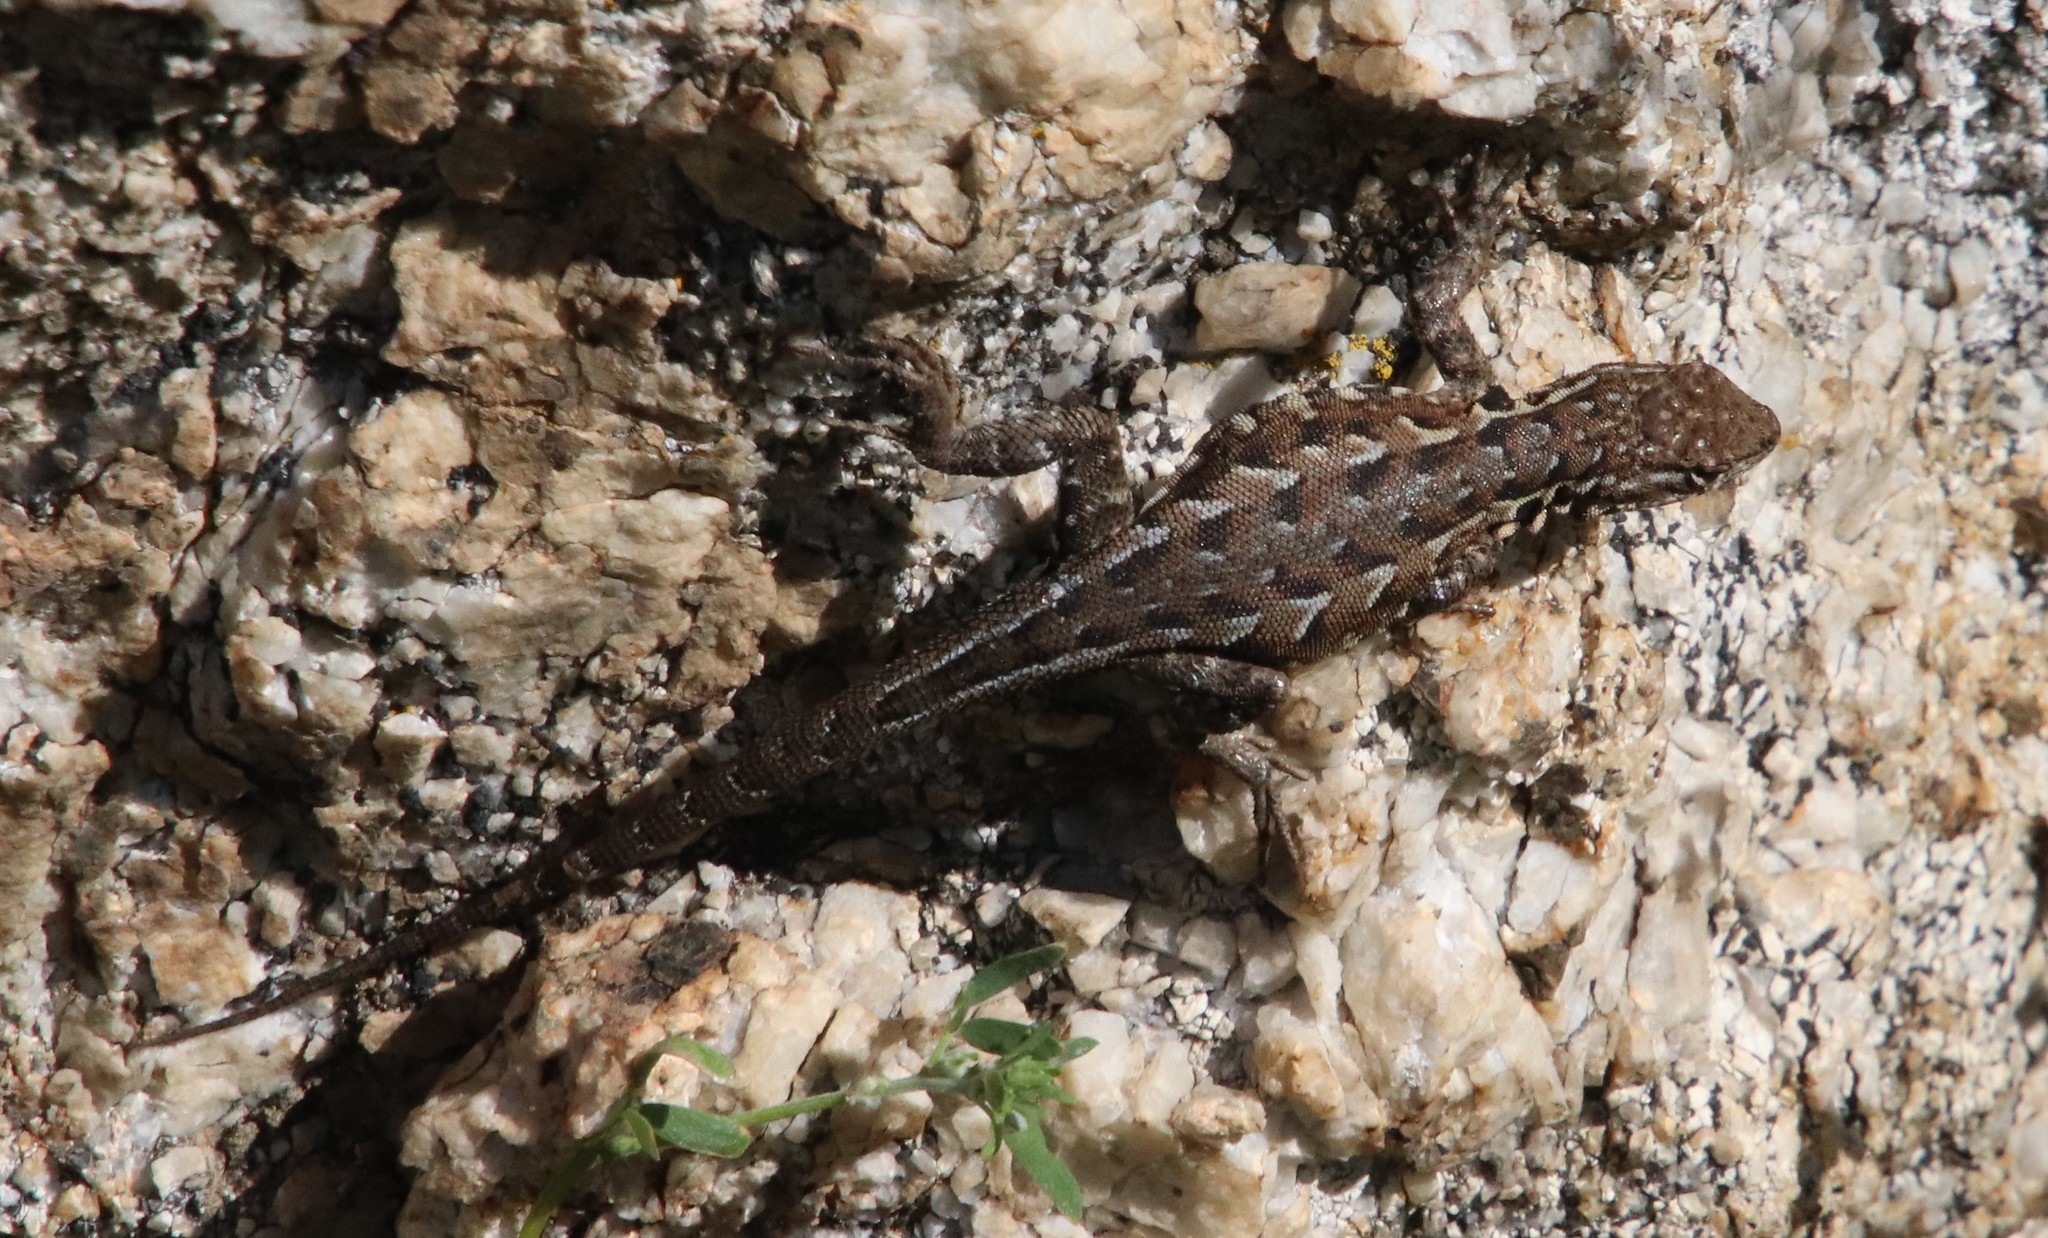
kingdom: Animalia
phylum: Chordata
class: Squamata
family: Phrynosomatidae
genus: Uta
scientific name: Uta stansburiana
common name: Side-blotched lizard
